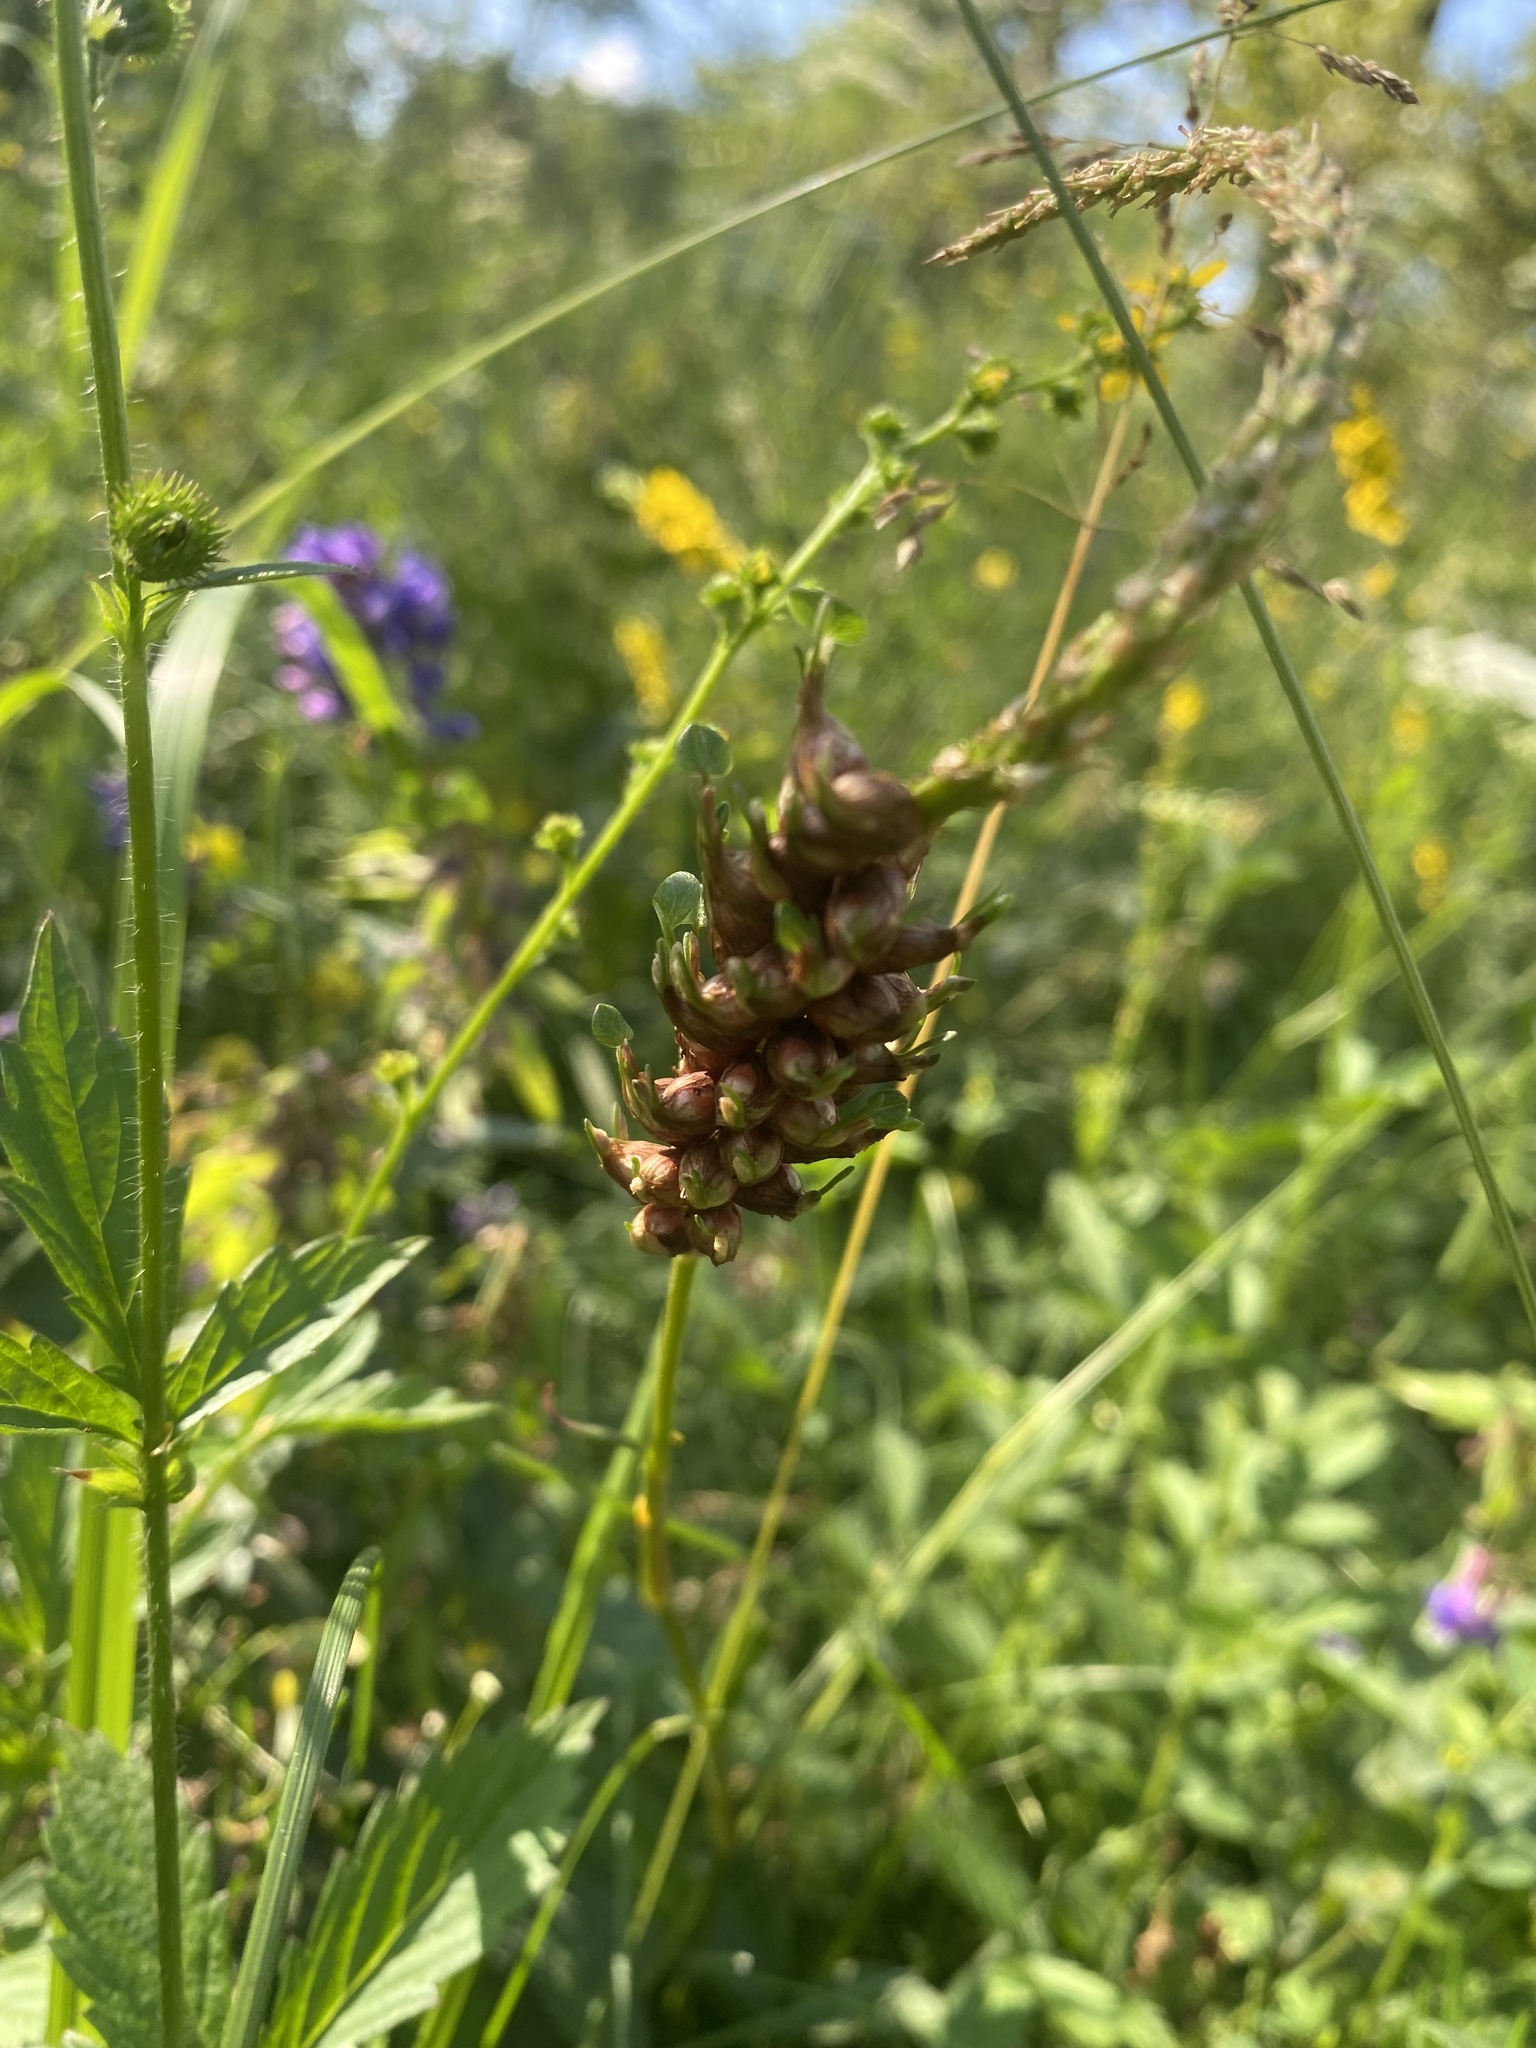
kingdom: Plantae
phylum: Tracheophyta
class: Magnoliopsida
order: Caryophyllales
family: Polygonaceae
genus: Bistorta
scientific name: Bistorta vivipara
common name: Alpine bistort
